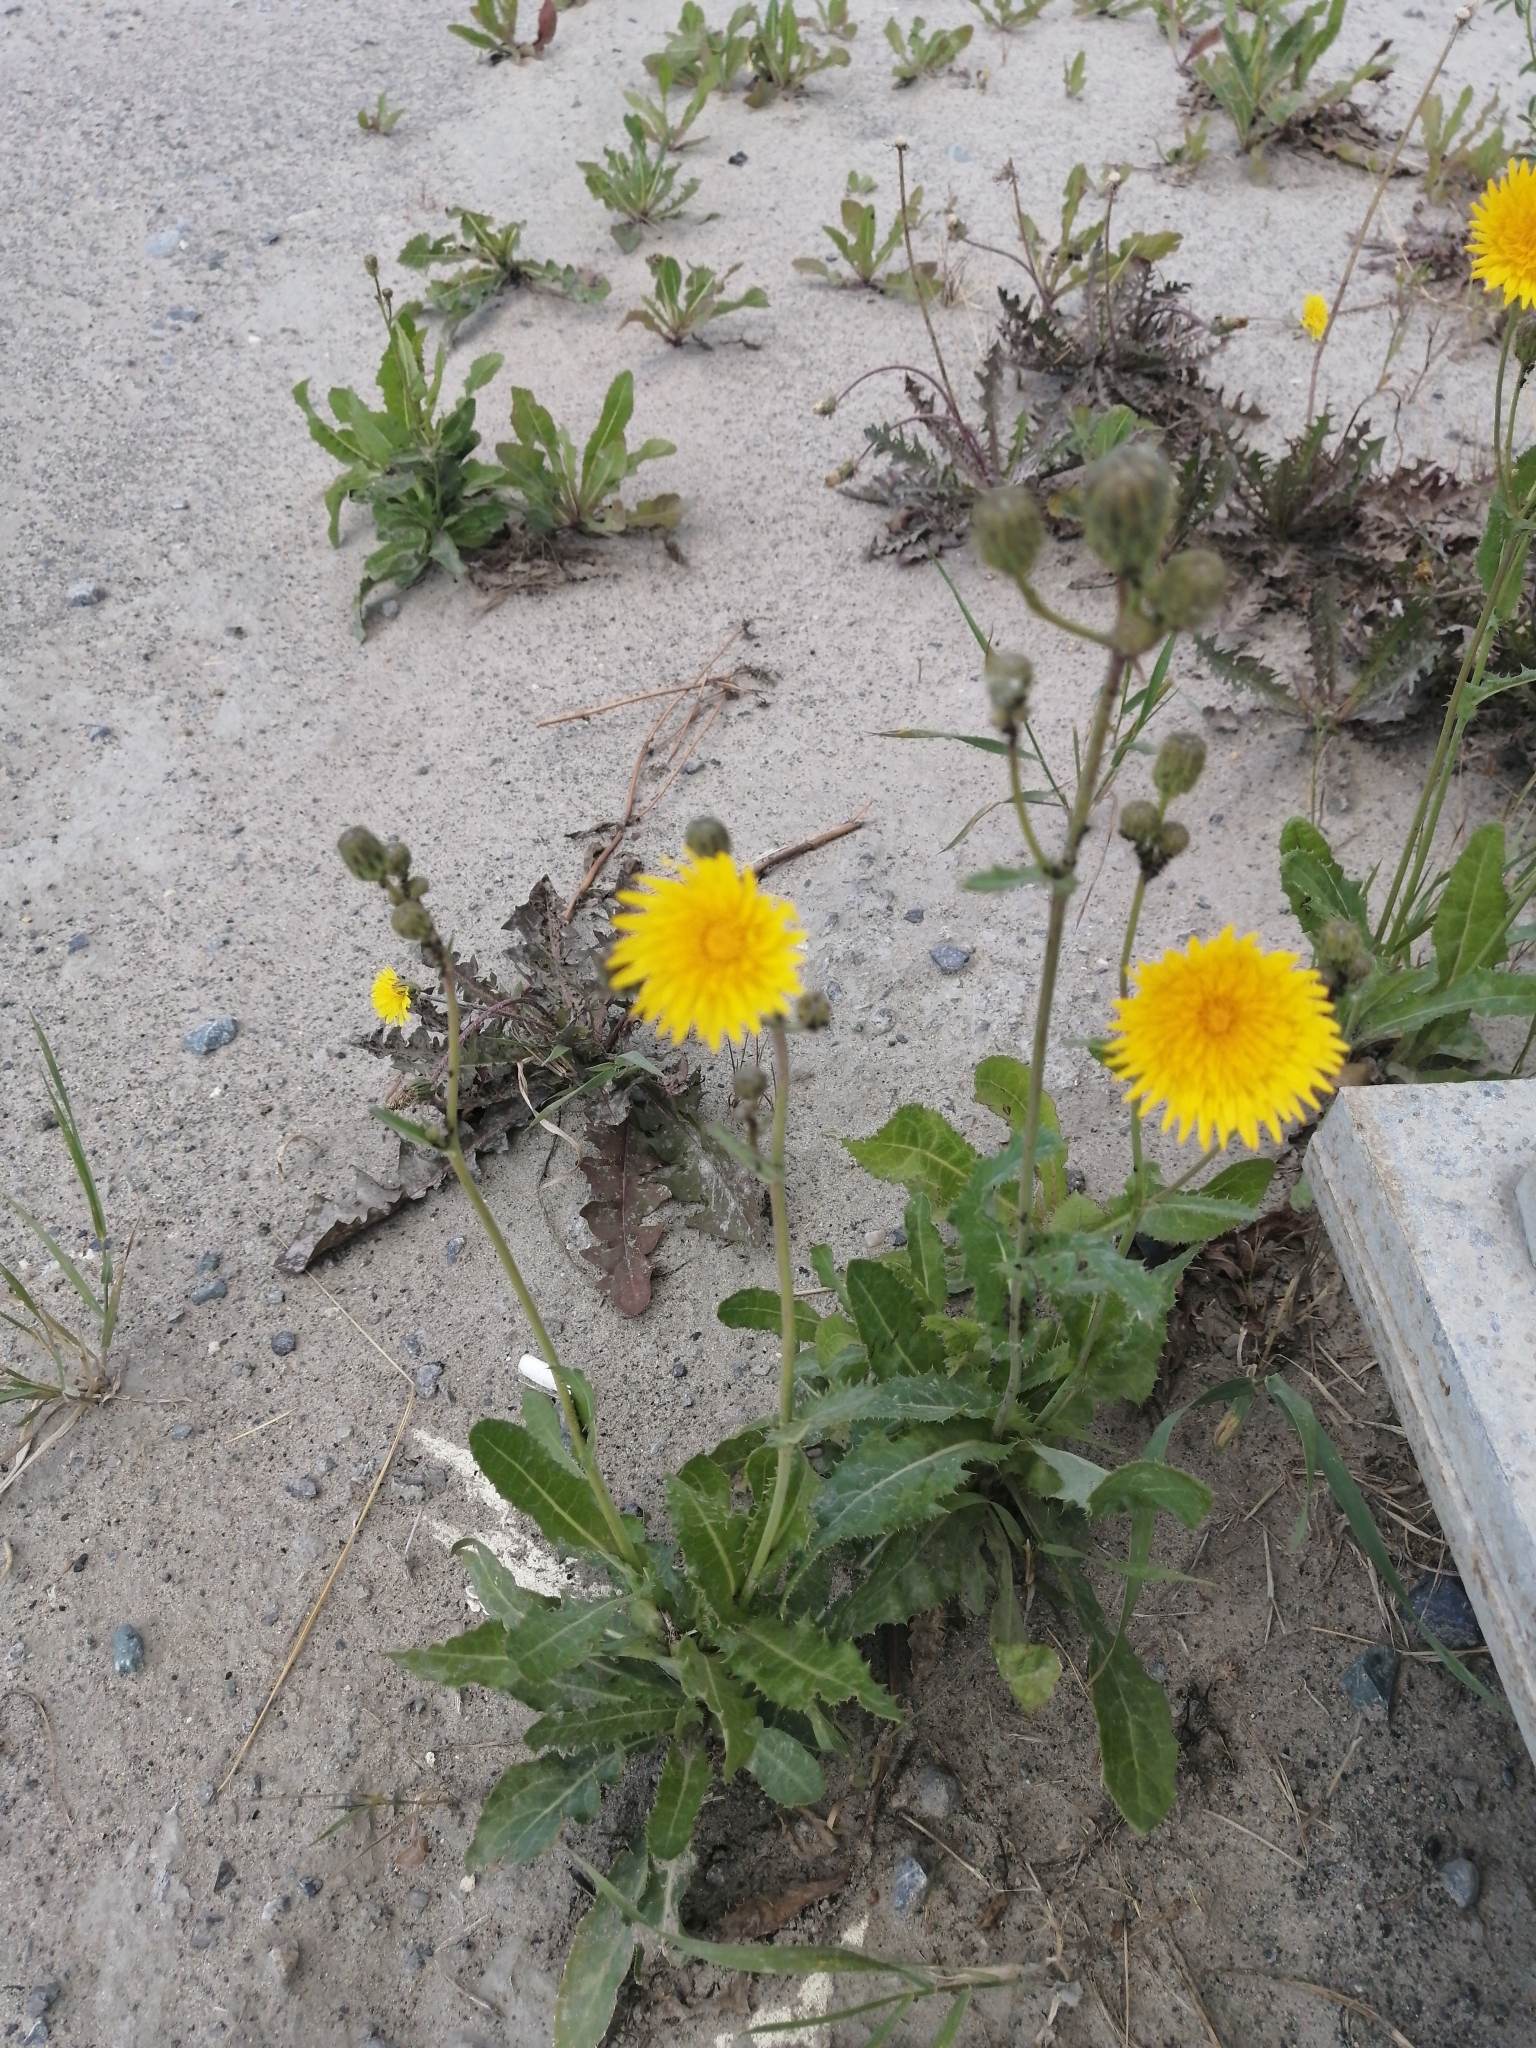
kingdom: Plantae
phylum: Tracheophyta
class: Magnoliopsida
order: Asterales
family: Asteraceae
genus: Sonchus
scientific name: Sonchus arvensis
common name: Perennial sow-thistle
